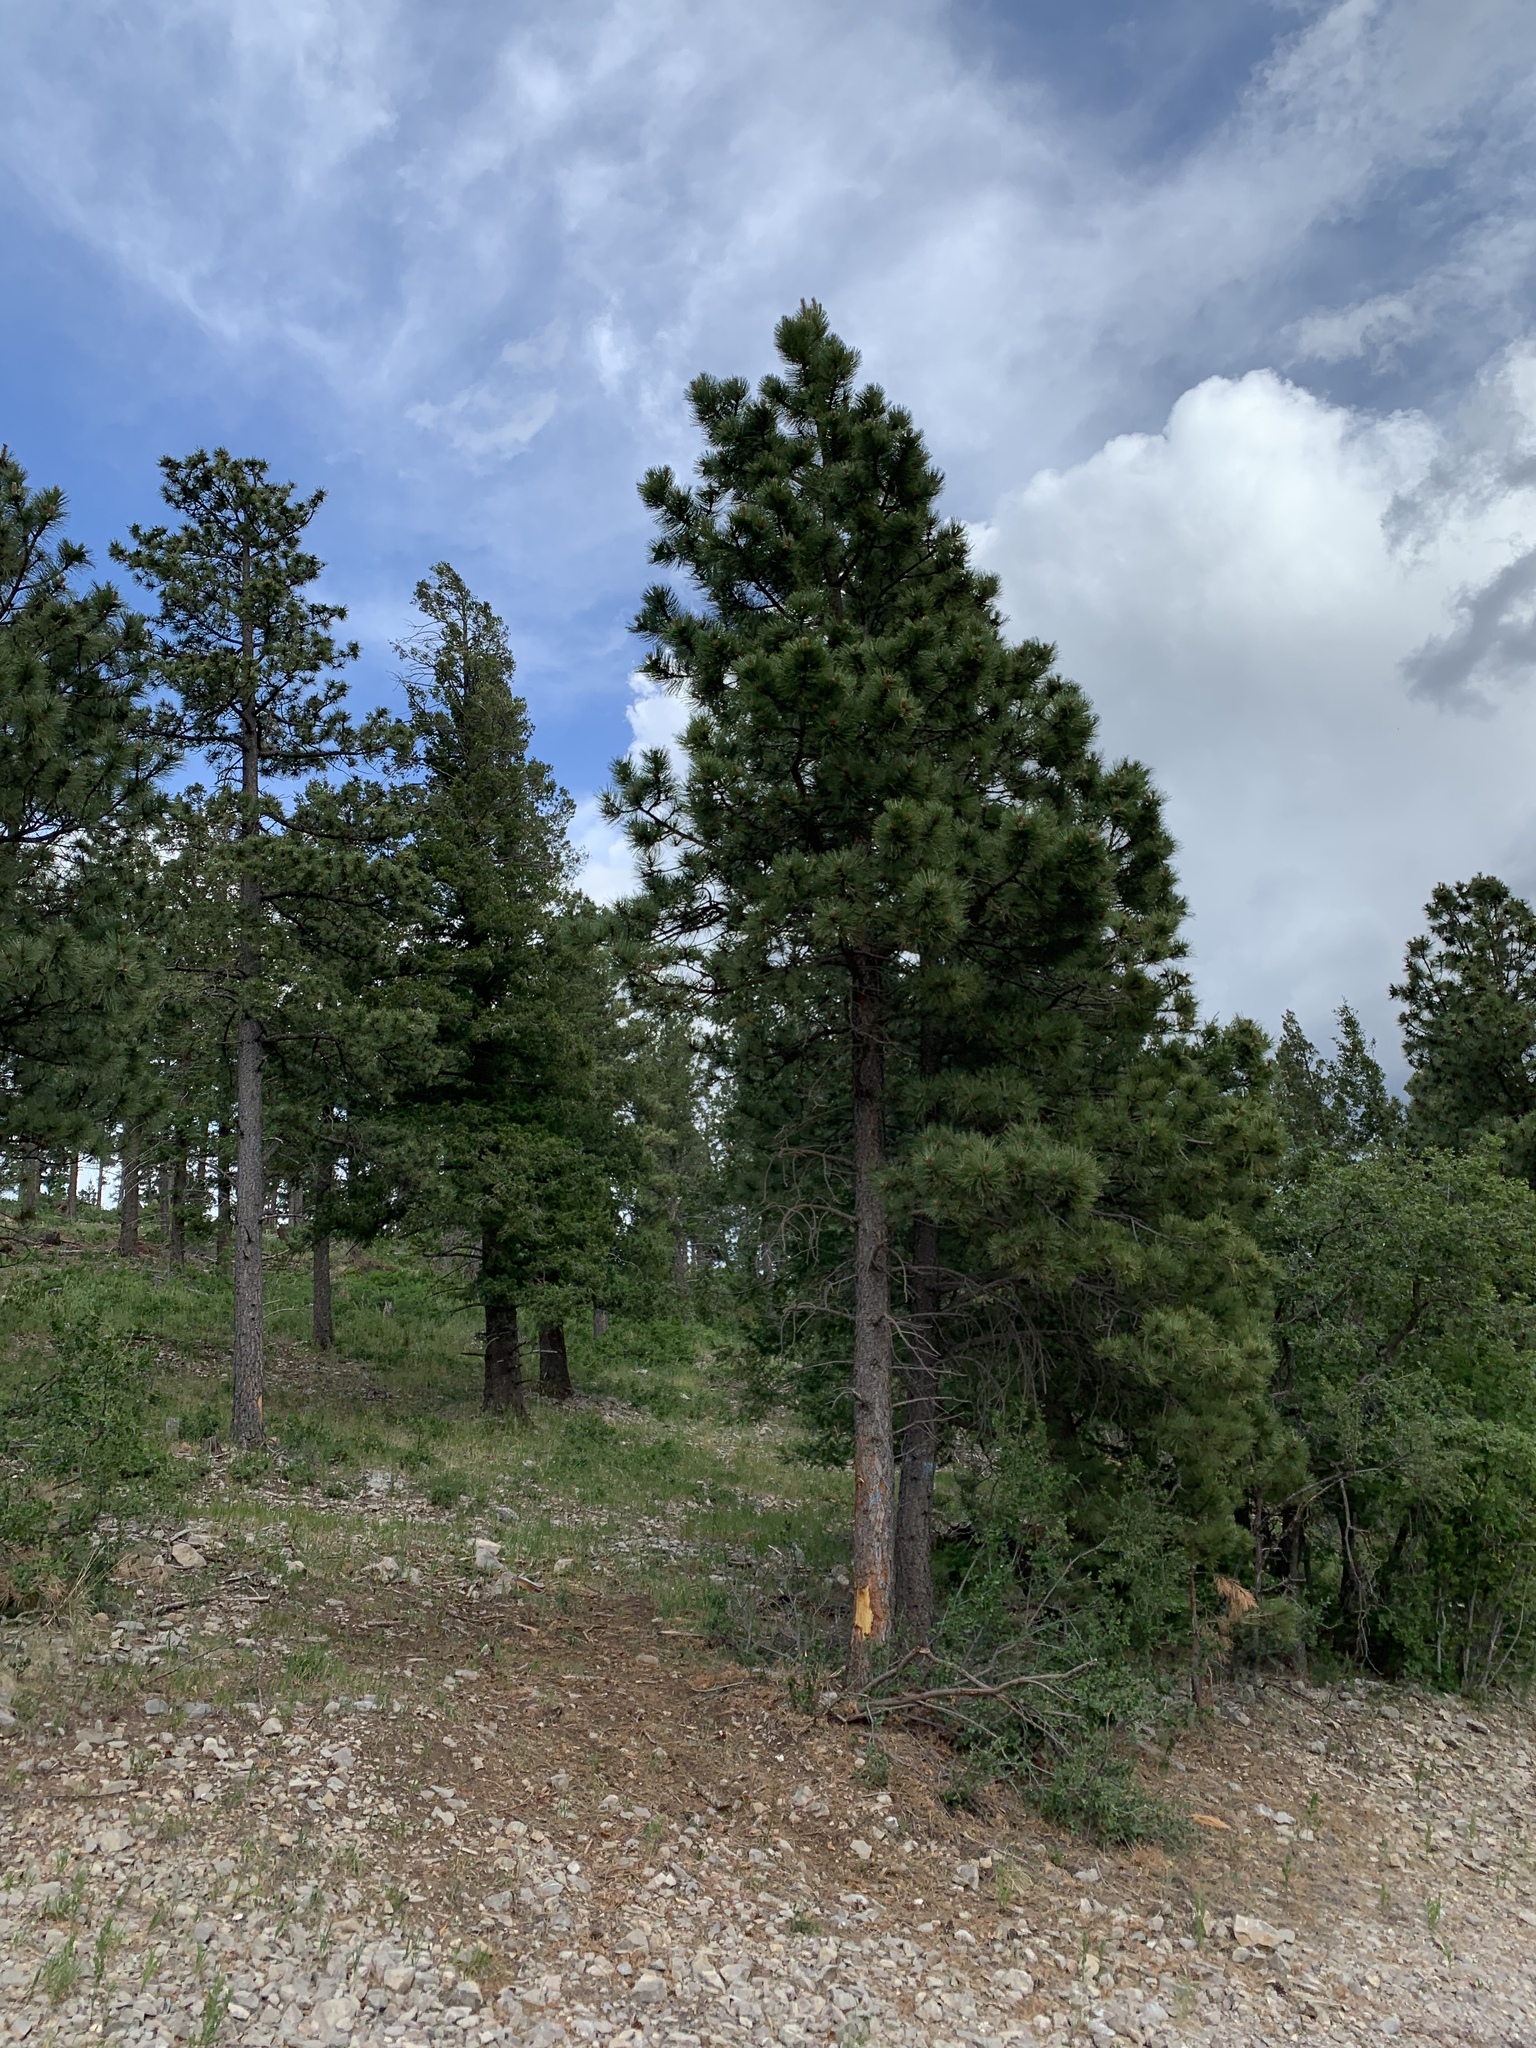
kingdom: Plantae
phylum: Tracheophyta
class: Pinopsida
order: Pinales
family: Pinaceae
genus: Pinus
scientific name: Pinus ponderosa
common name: Western yellow-pine
